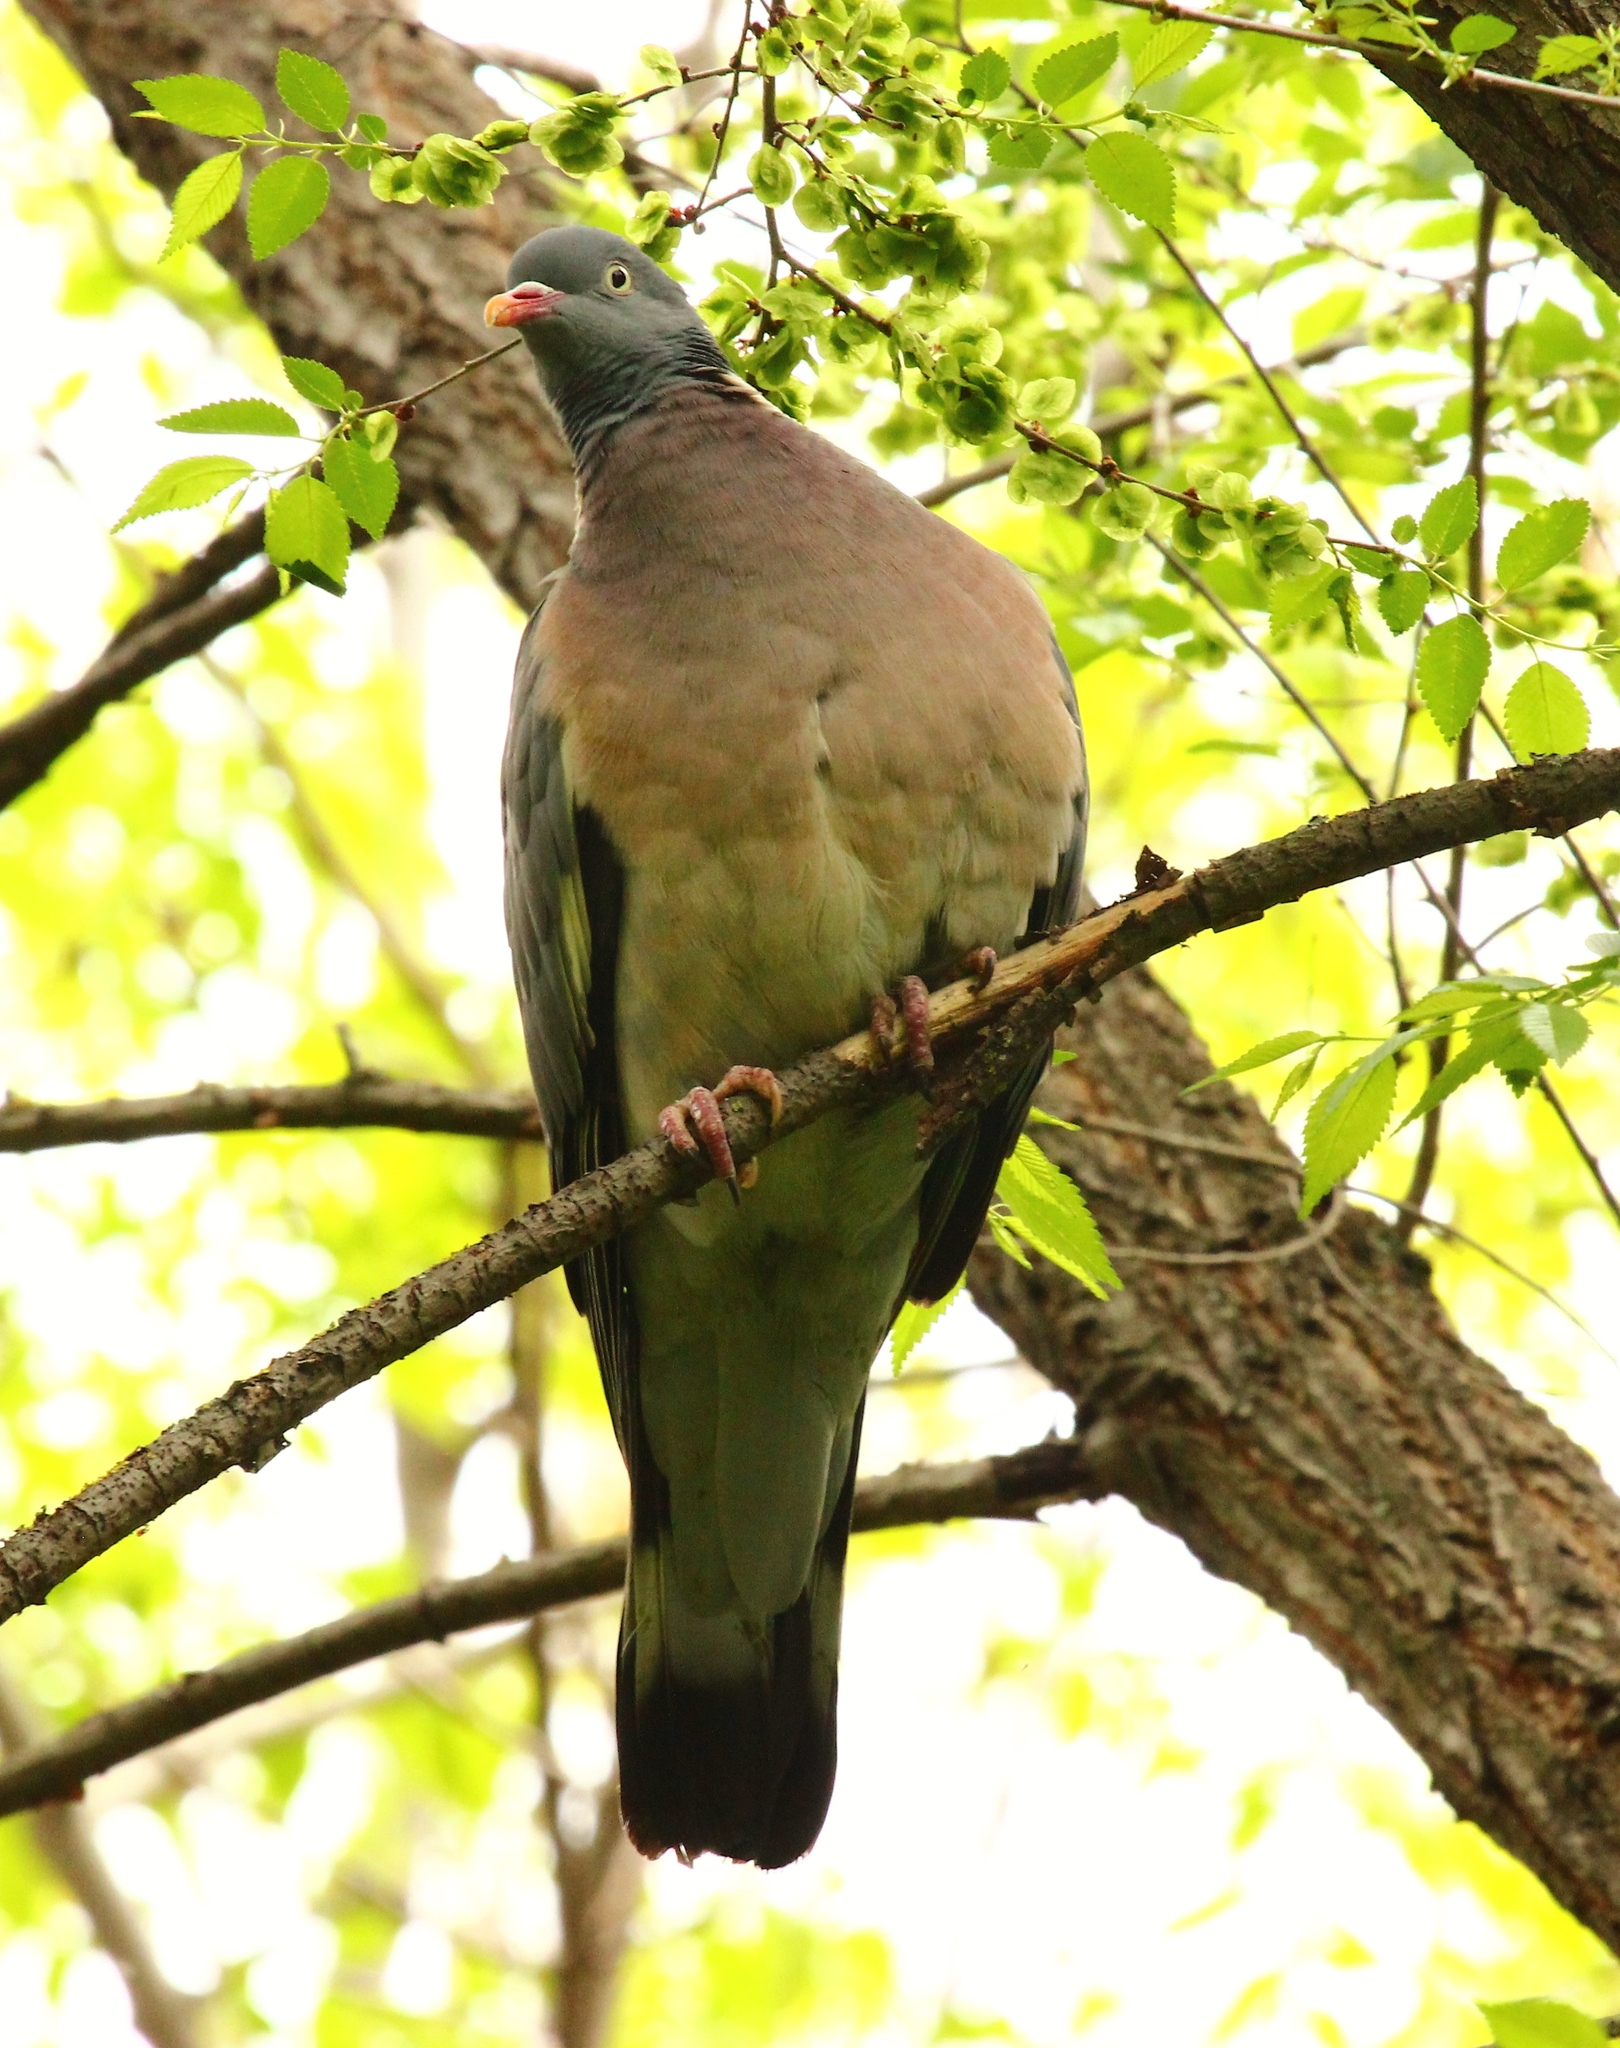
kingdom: Animalia
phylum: Chordata
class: Aves
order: Columbiformes
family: Columbidae
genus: Columba
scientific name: Columba palumbus
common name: Common wood pigeon
